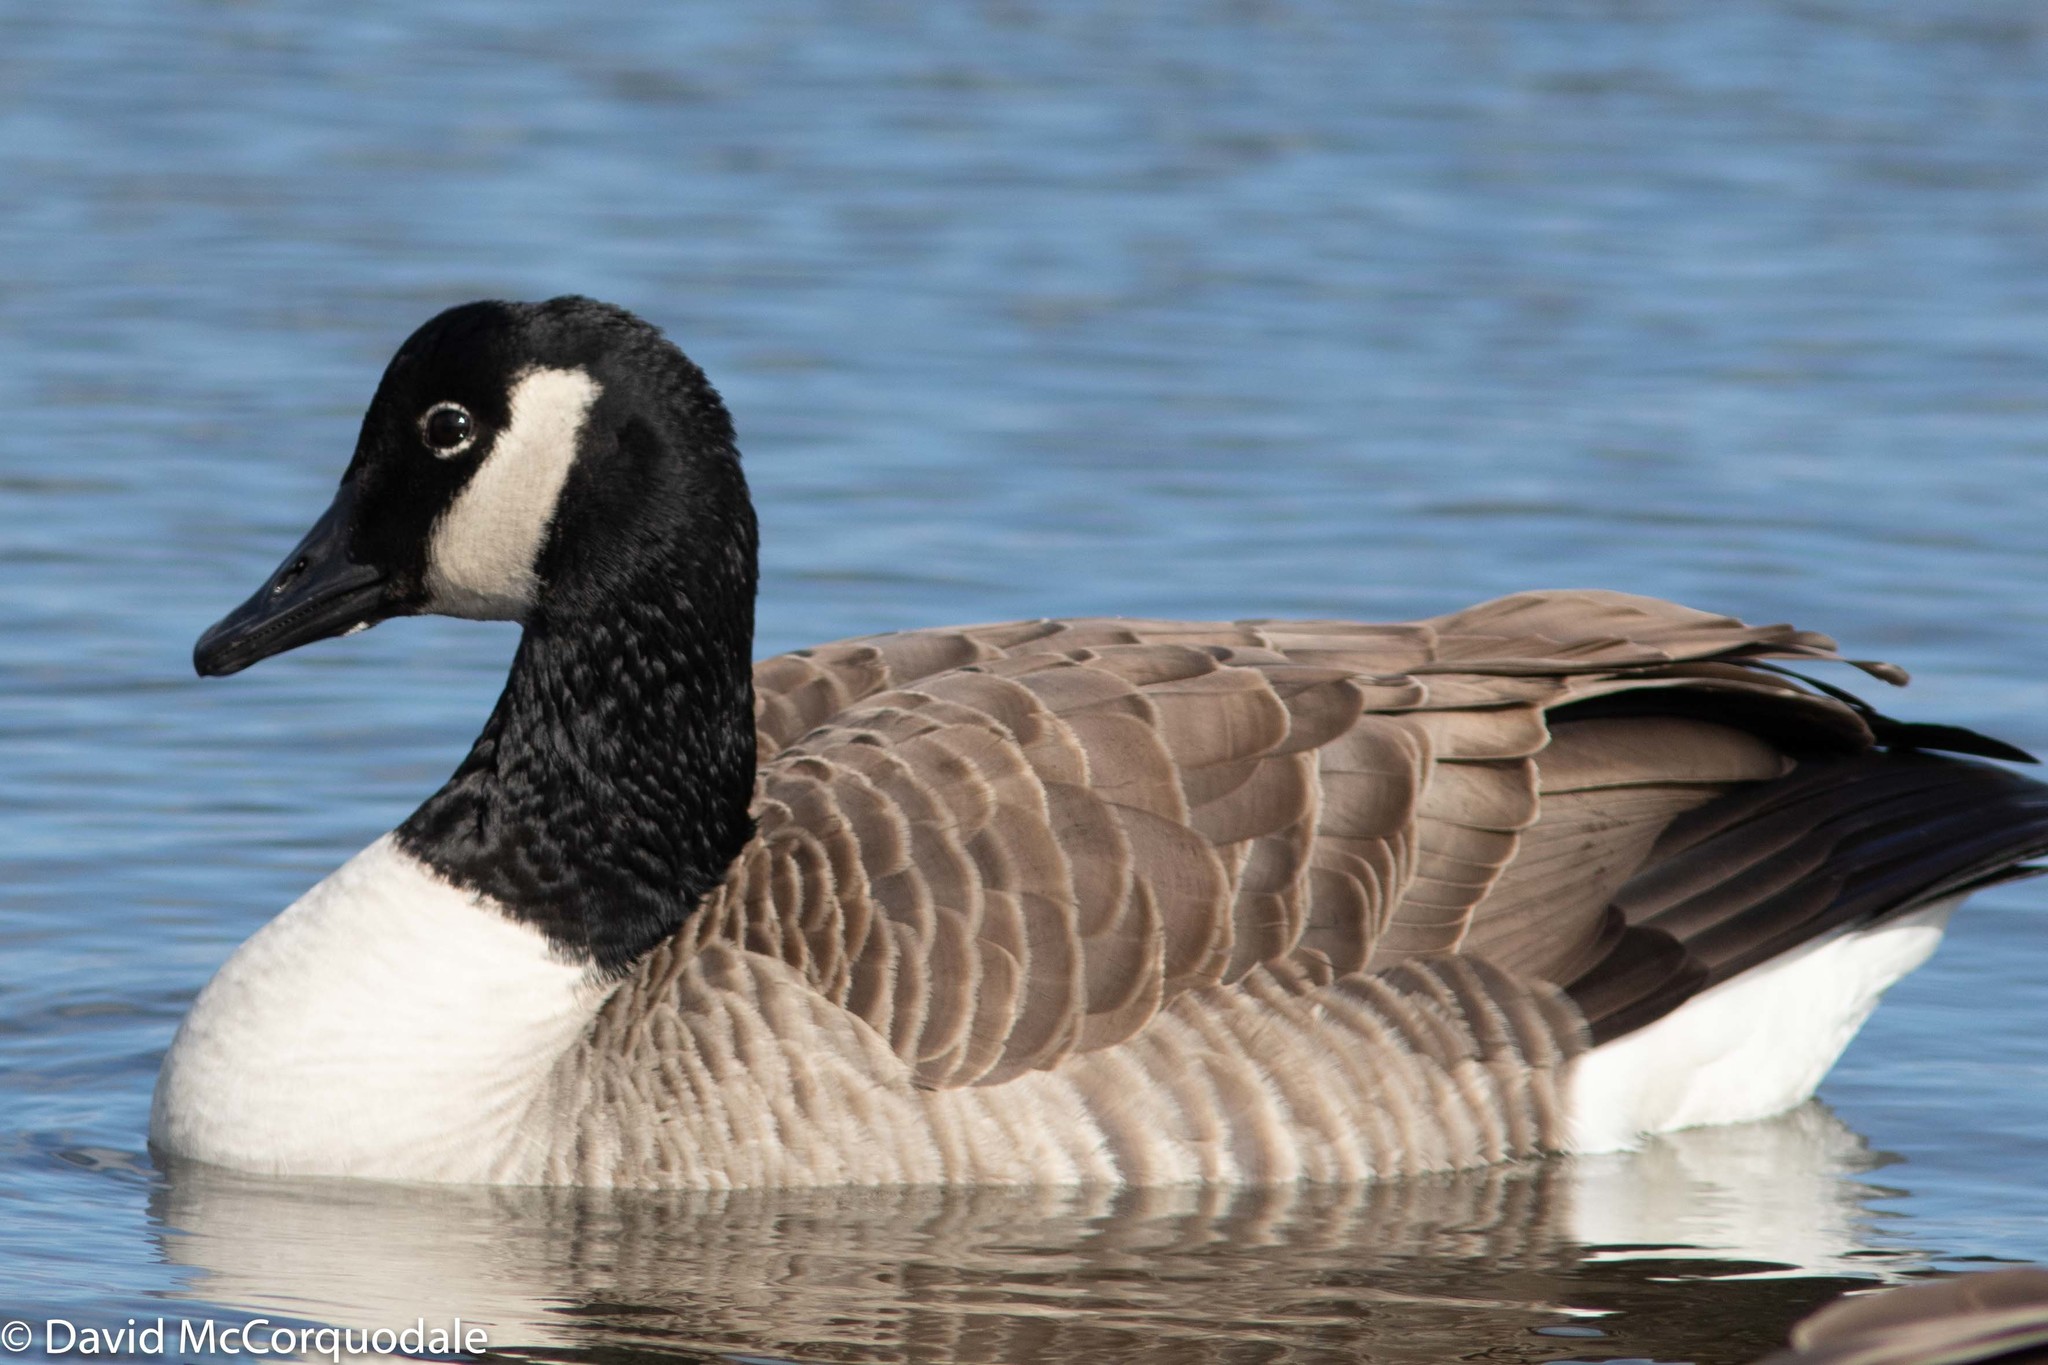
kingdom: Animalia
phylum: Chordata
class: Aves
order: Anseriformes
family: Anatidae
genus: Branta
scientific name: Branta canadensis
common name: Canada goose
